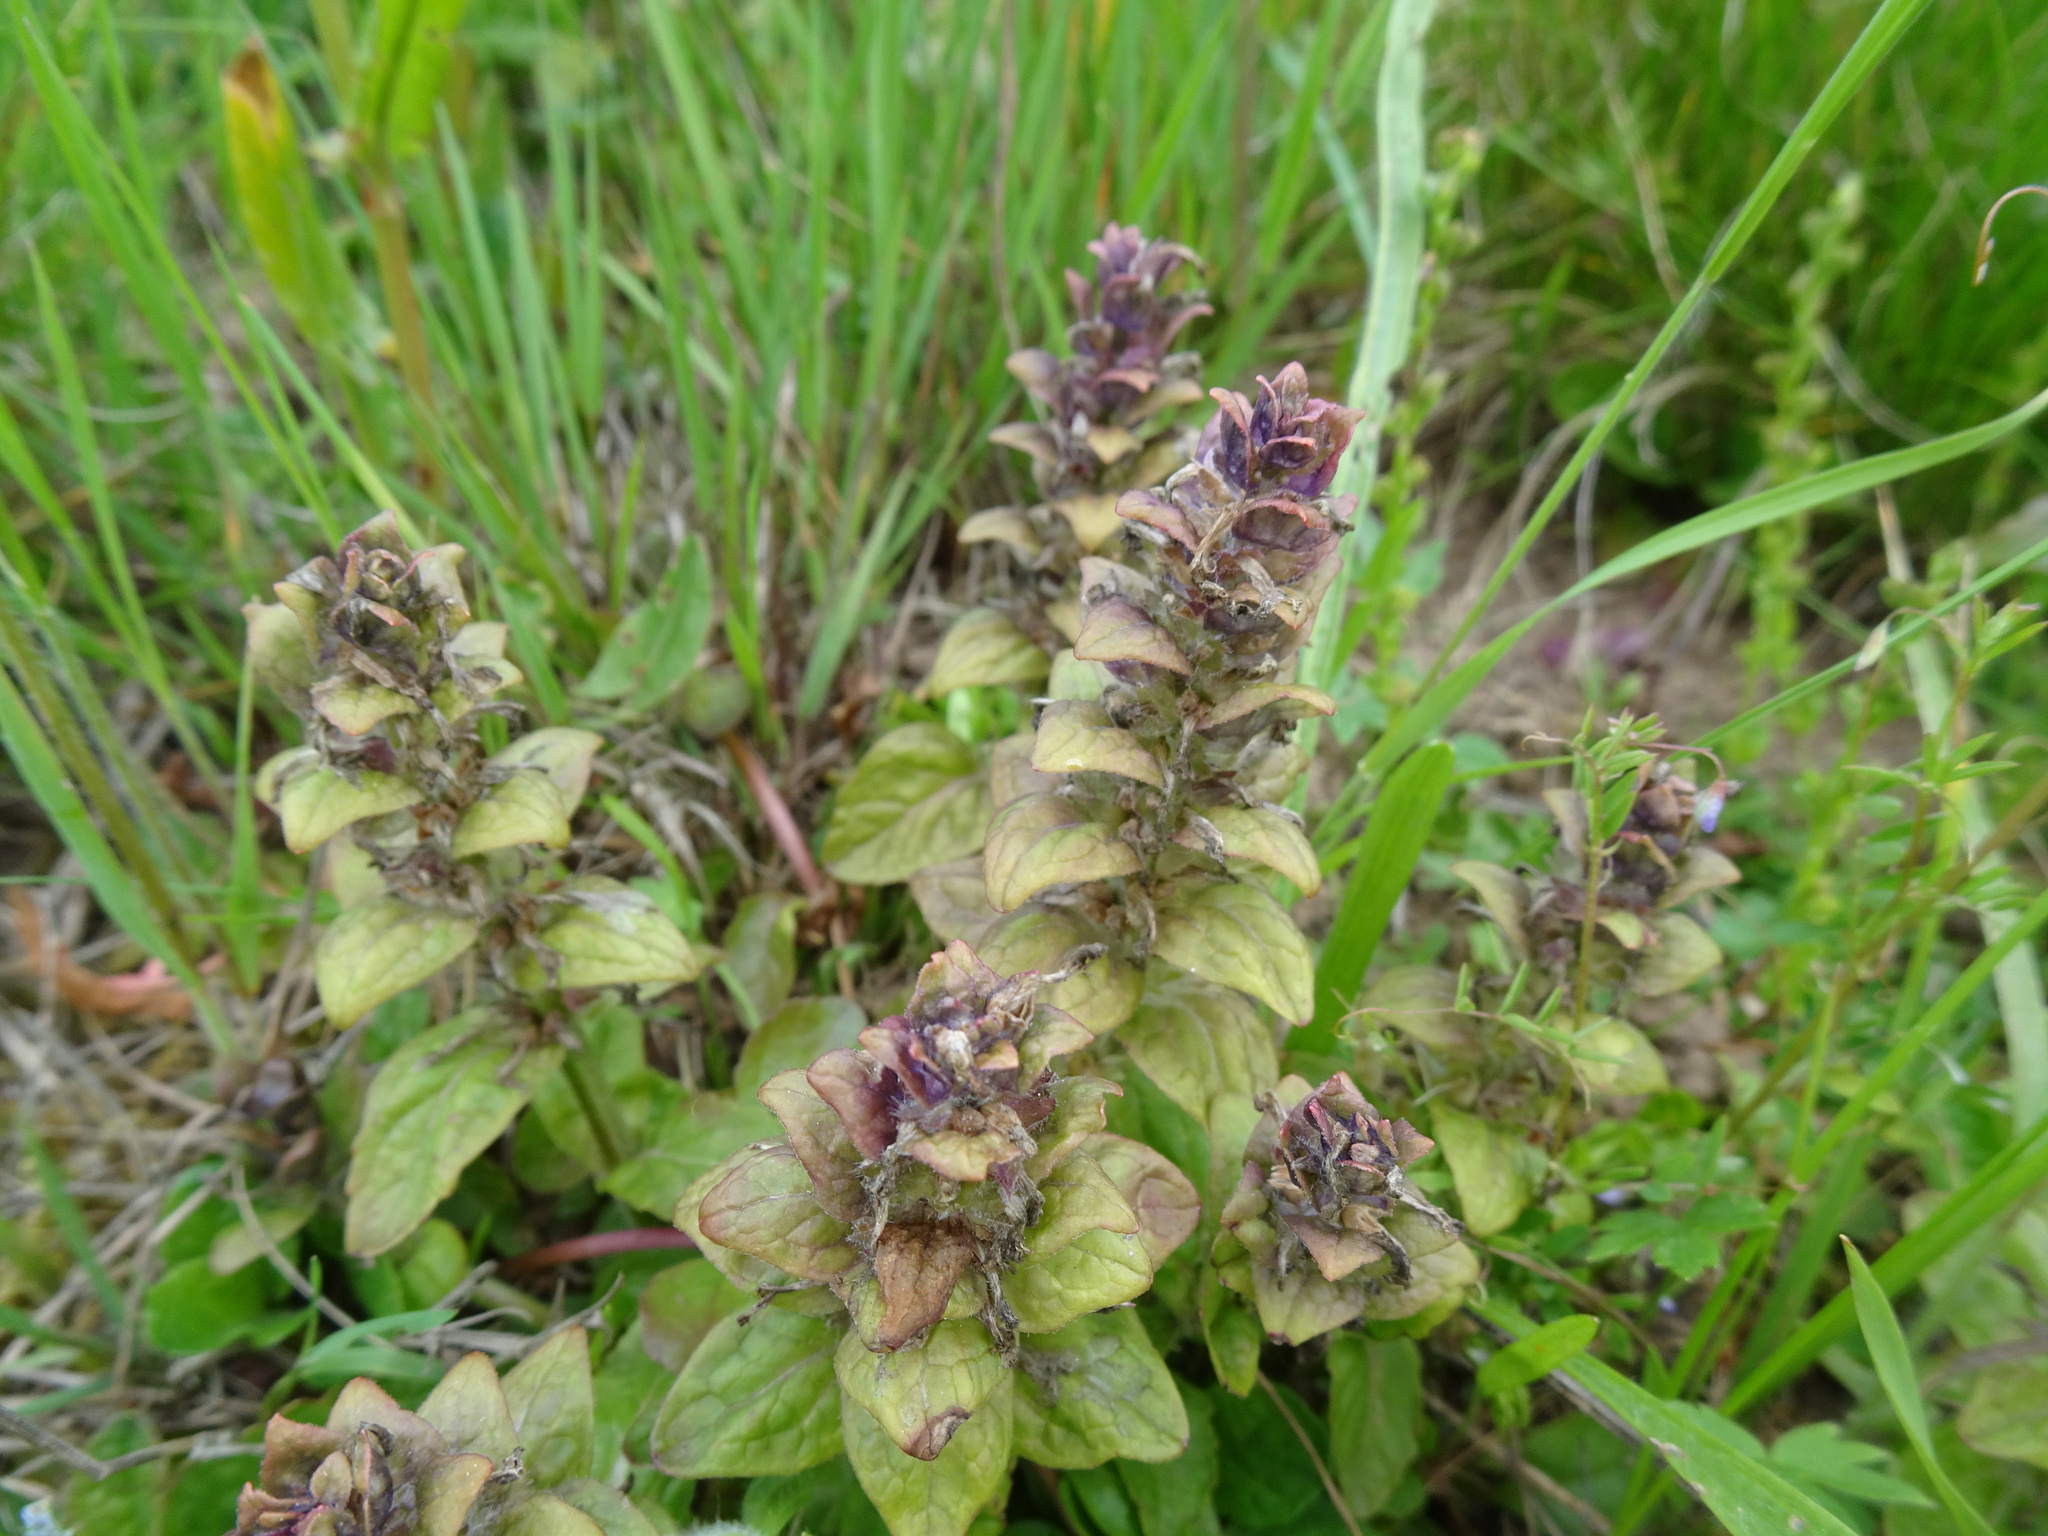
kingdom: Plantae
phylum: Tracheophyta
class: Magnoliopsida
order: Lamiales
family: Lamiaceae
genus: Ajuga
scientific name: Ajuga reptans
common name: Bugle
